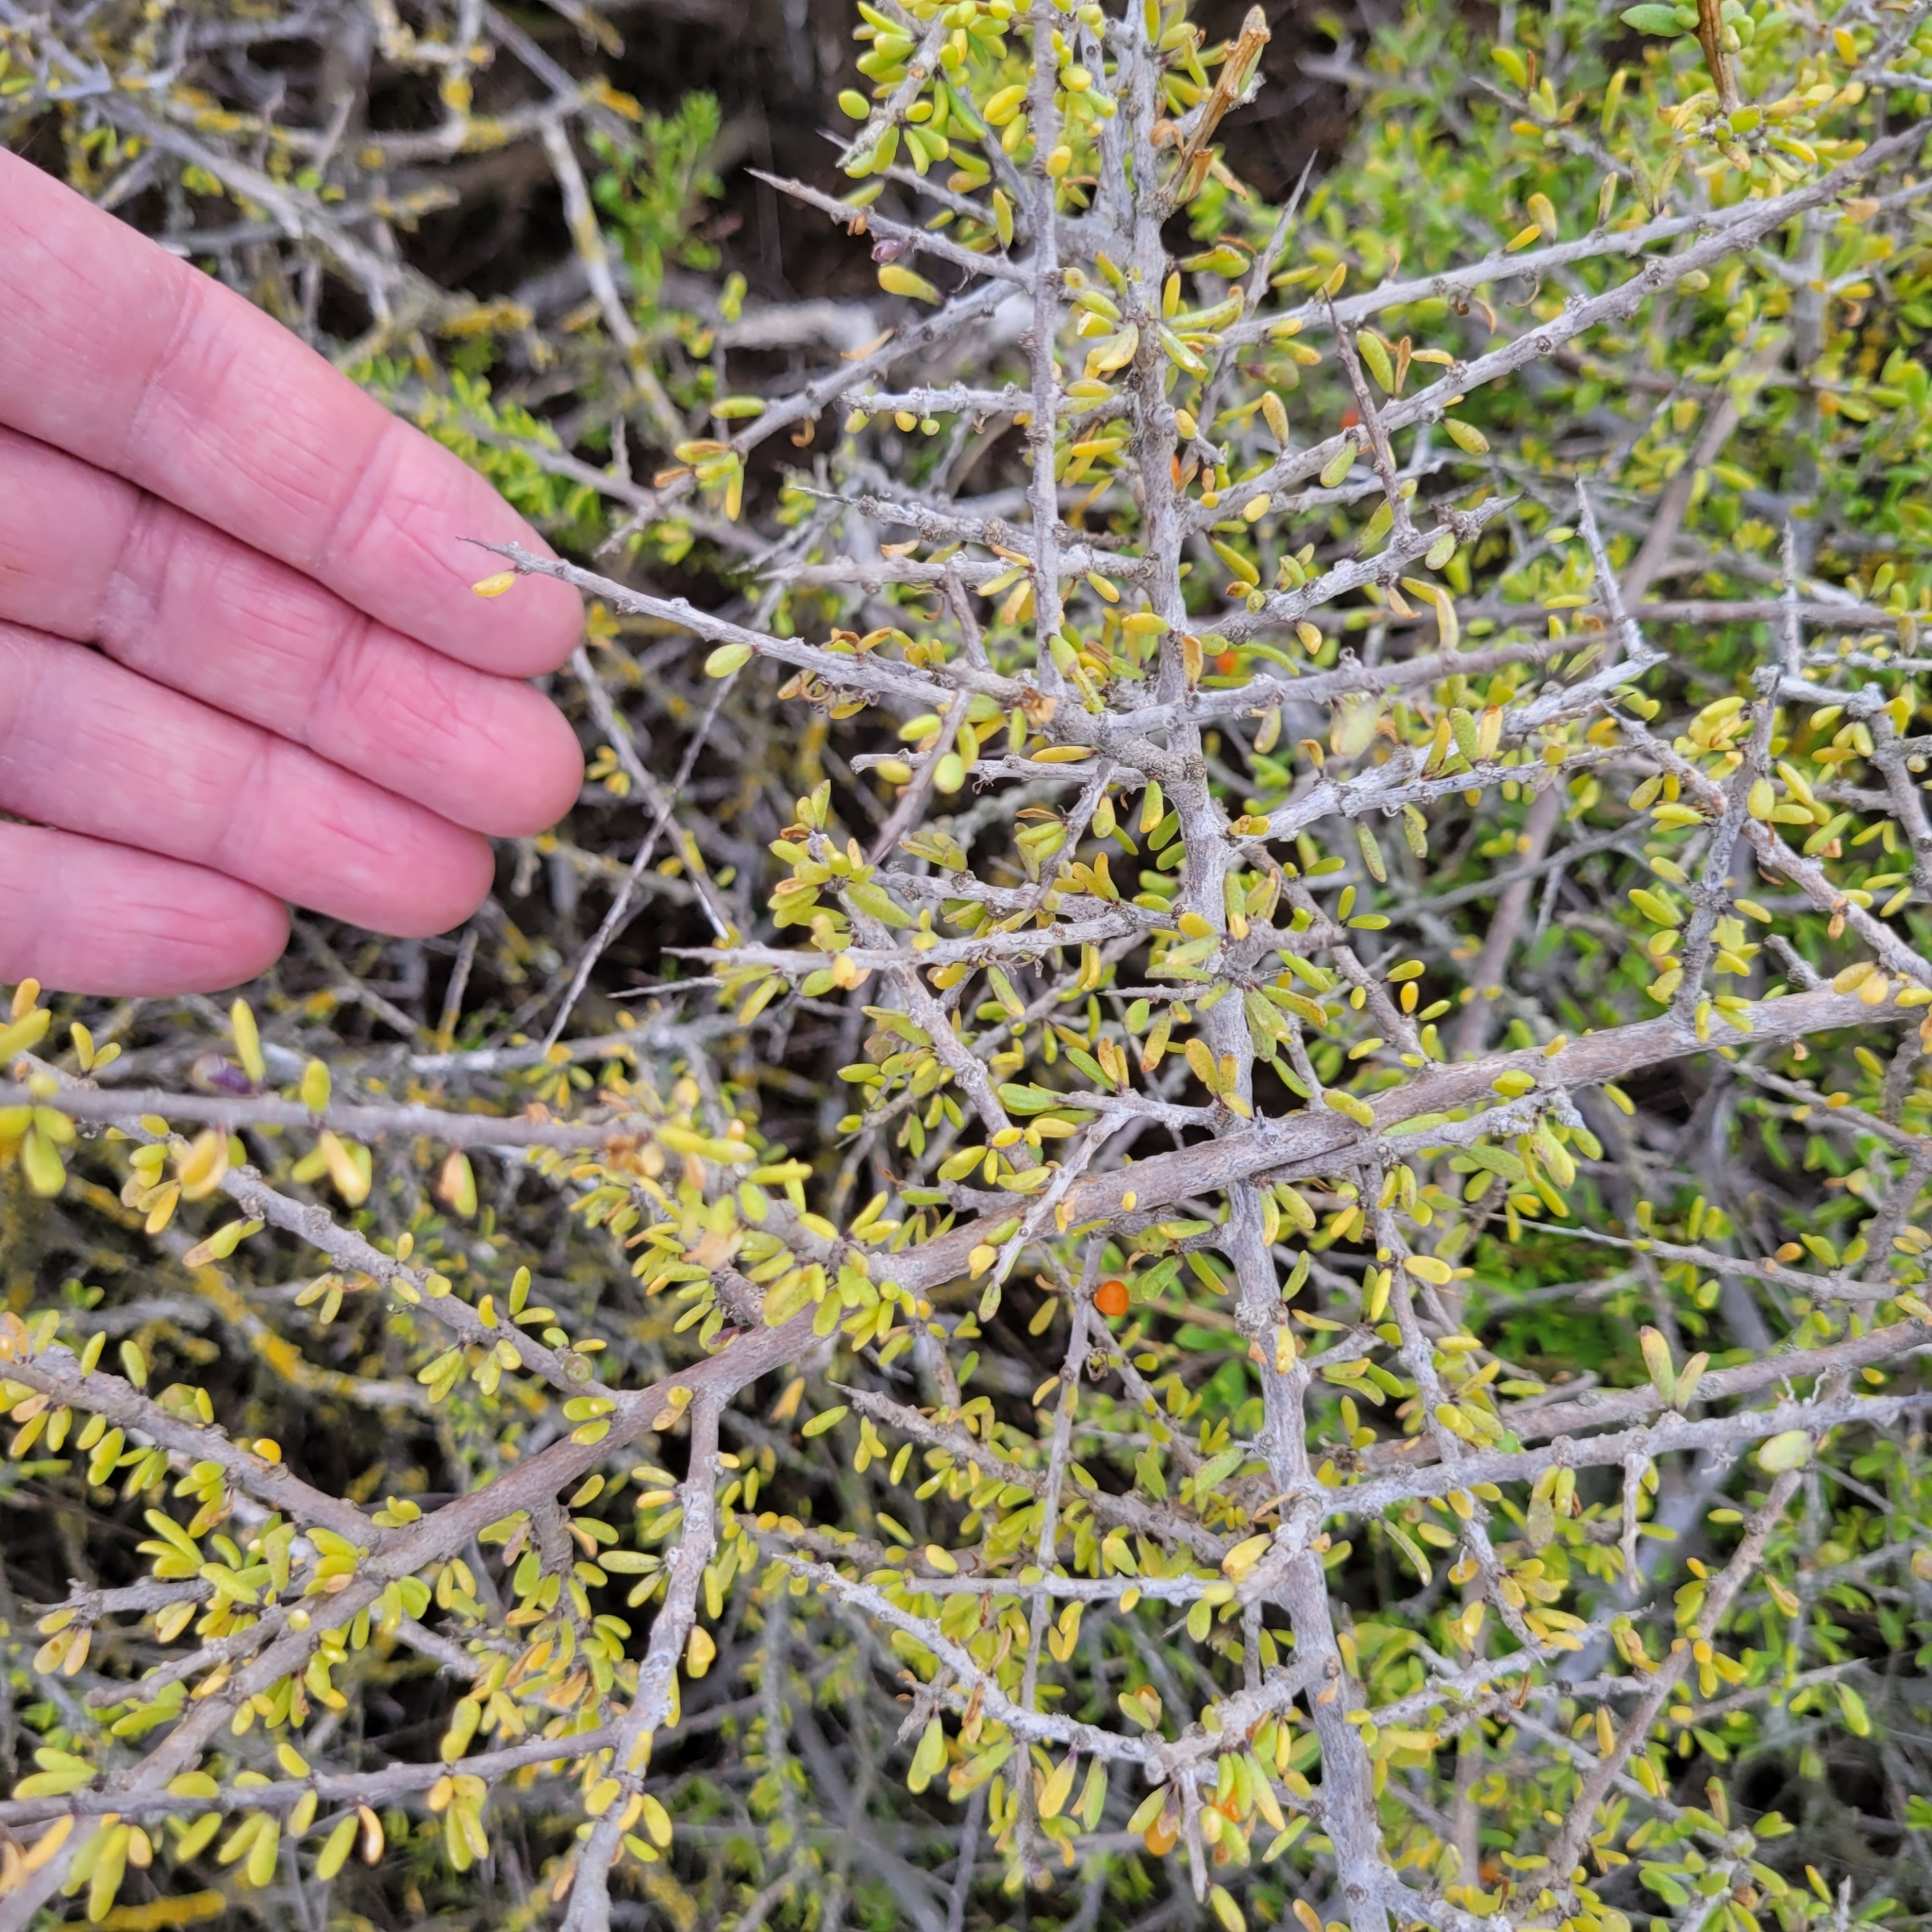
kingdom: Plantae
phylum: Tracheophyta
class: Magnoliopsida
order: Solanales
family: Solanaceae
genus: Lycium
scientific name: Lycium californicum
